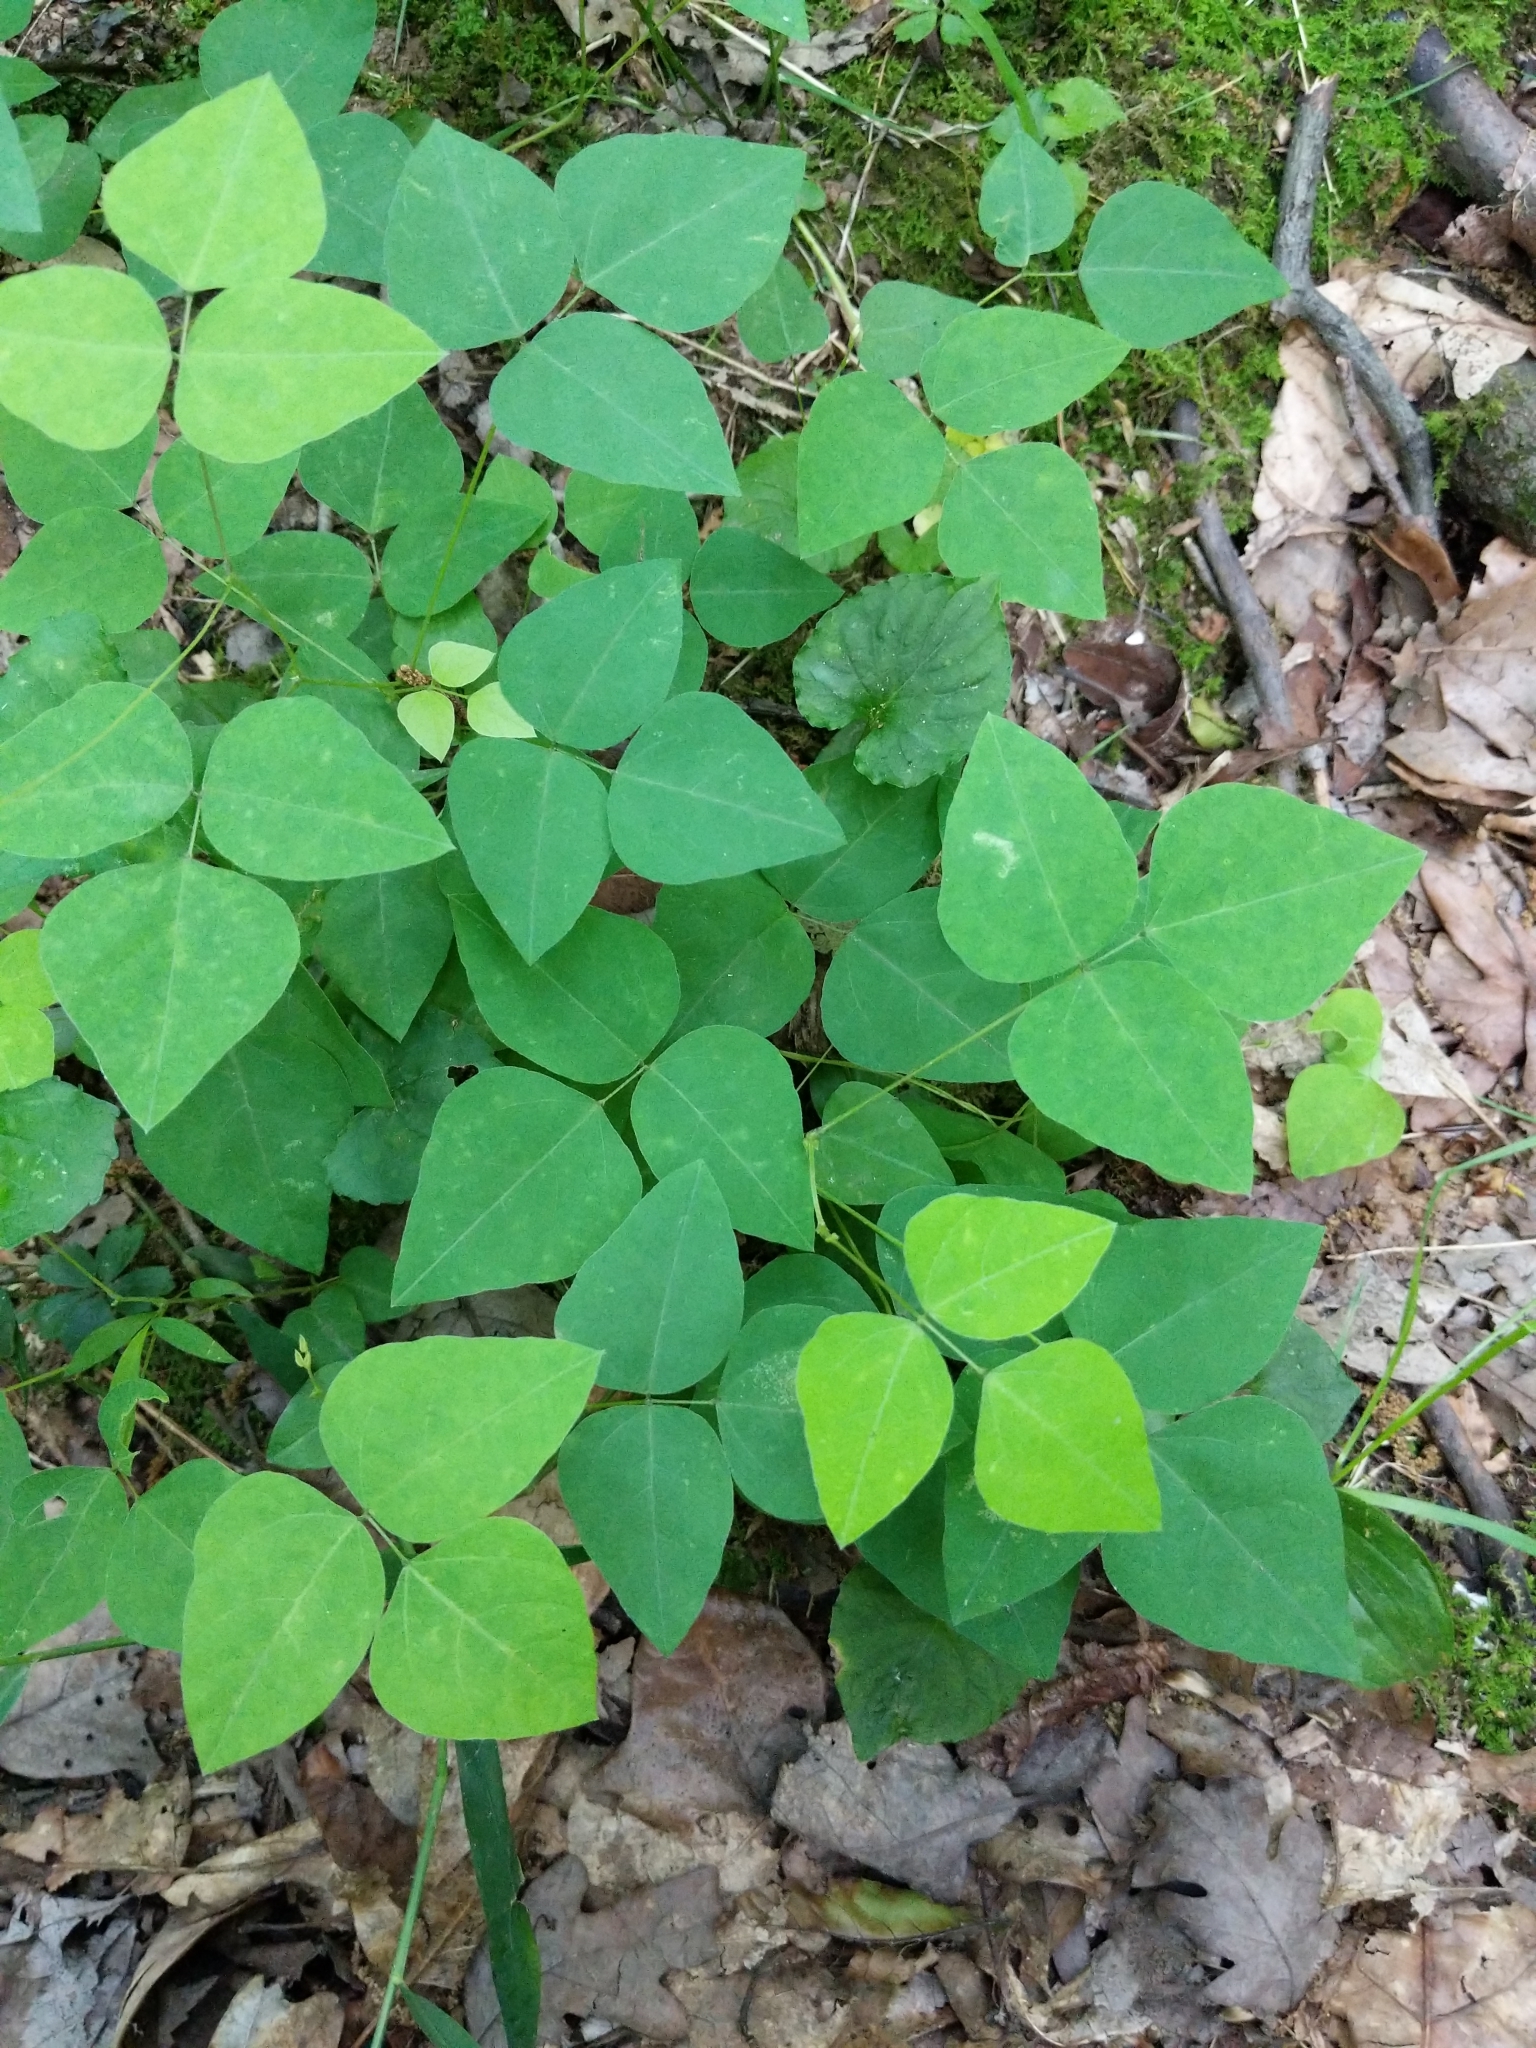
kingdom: Plantae
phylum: Tracheophyta
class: Magnoliopsida
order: Fabales
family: Fabaceae
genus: Amphicarpaea
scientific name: Amphicarpaea bracteata
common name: American hog peanut
